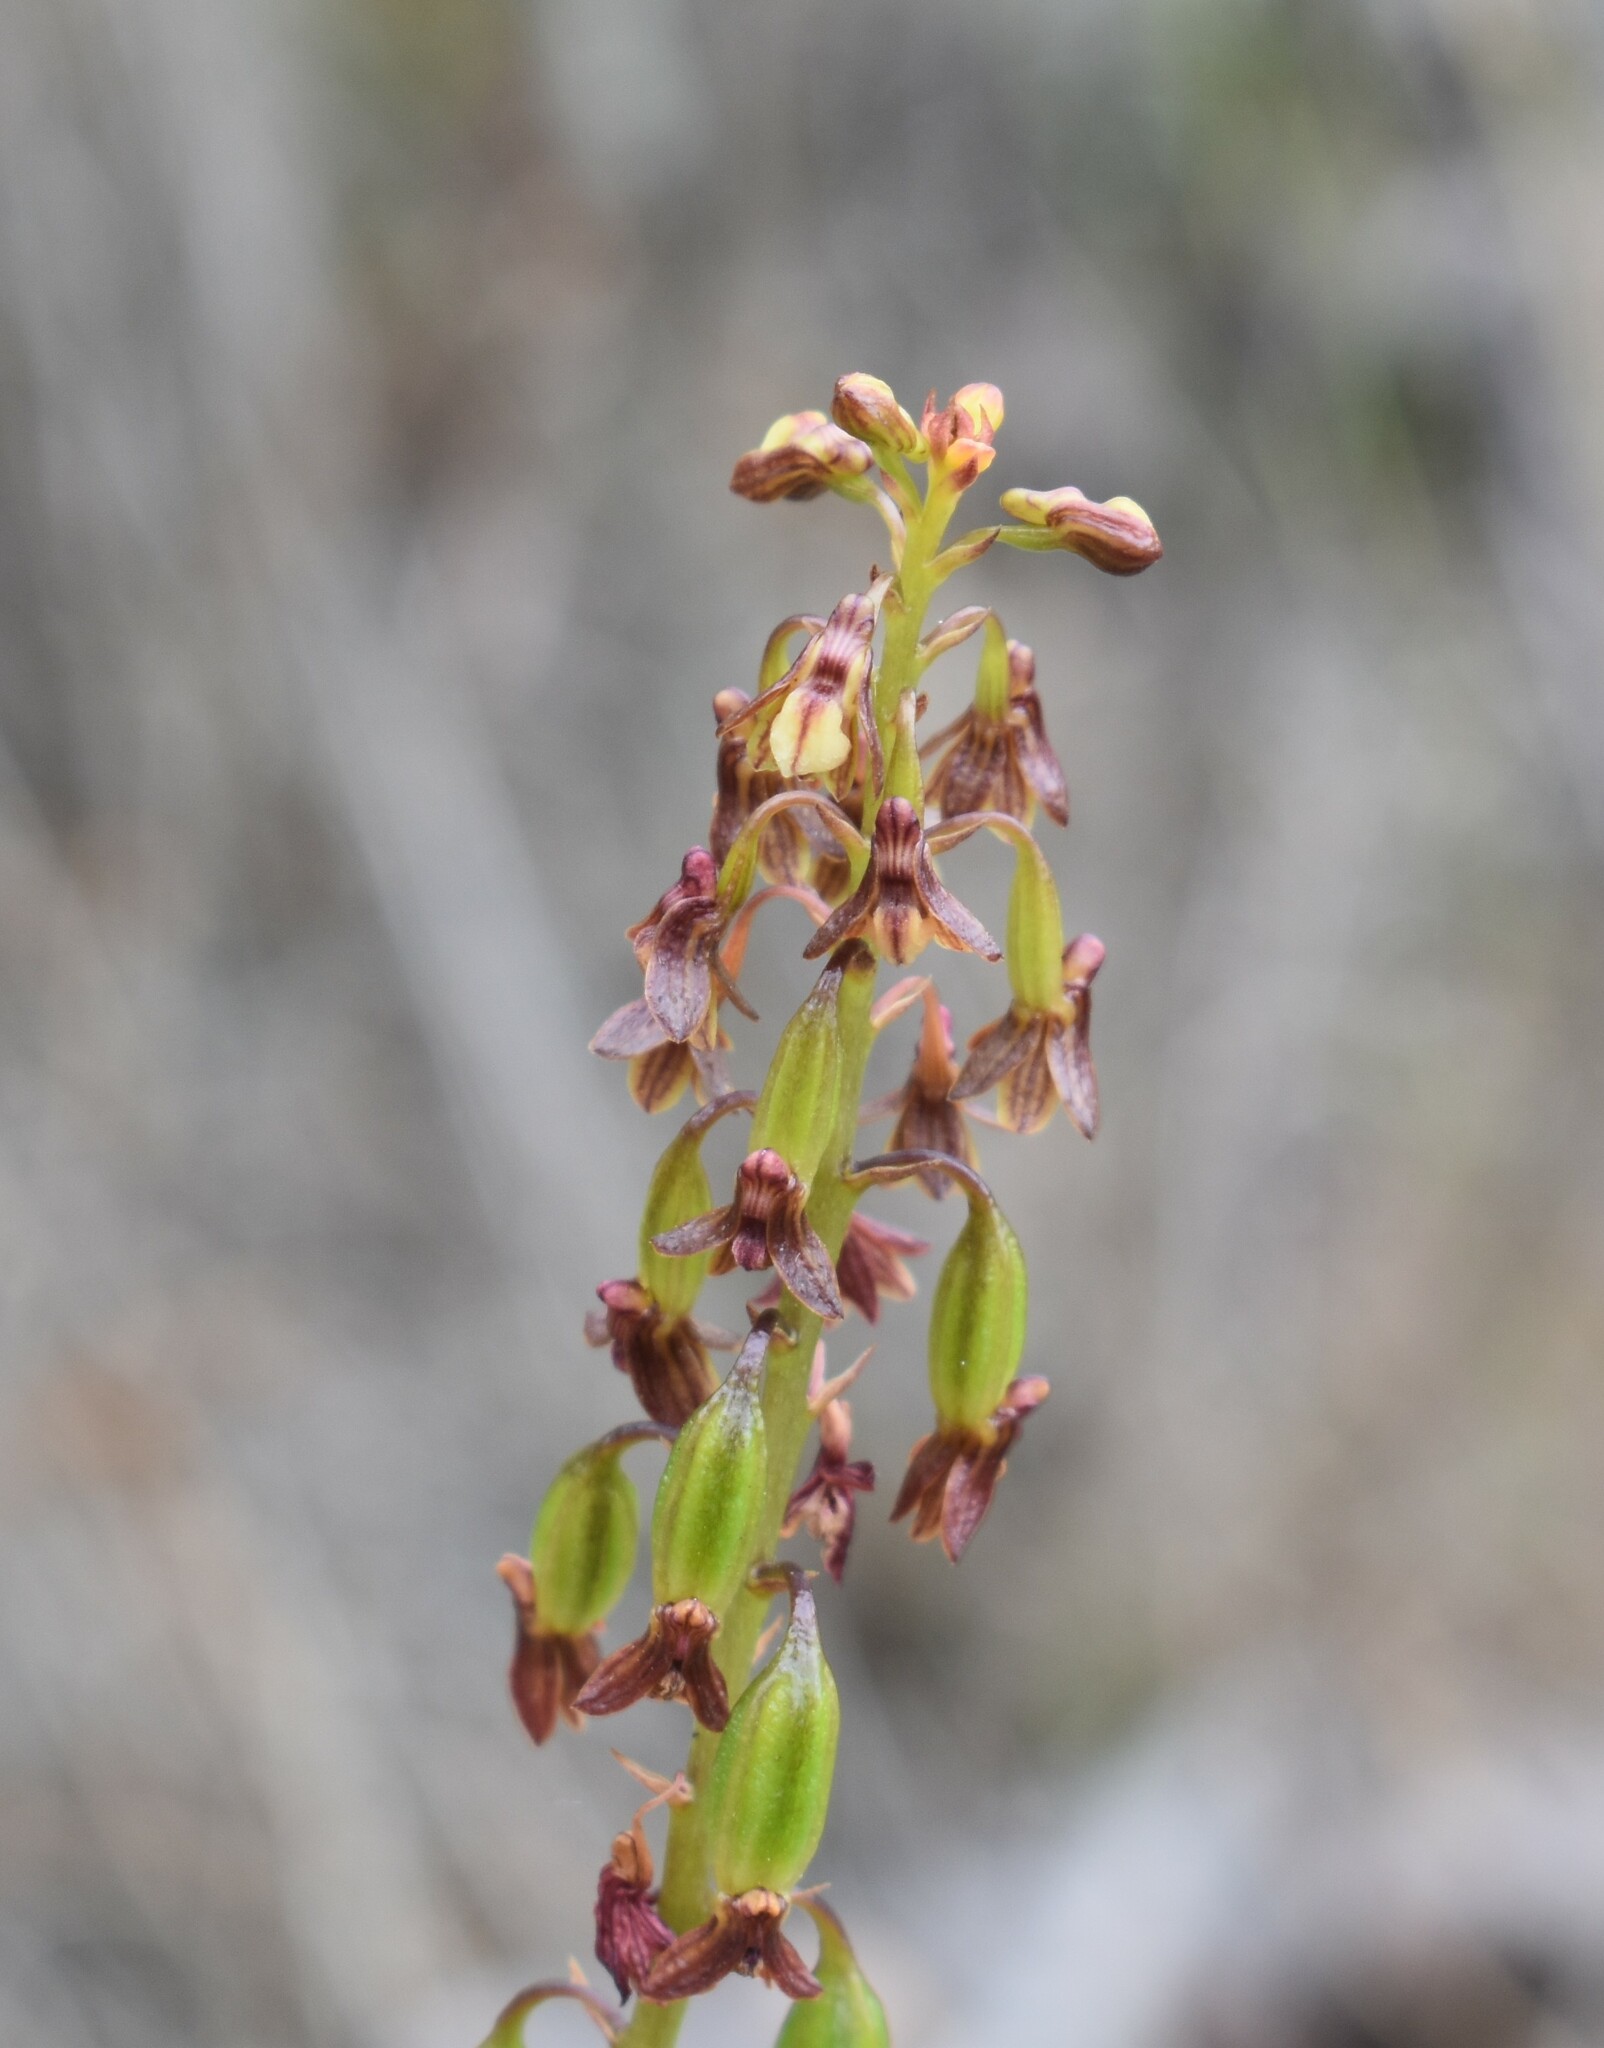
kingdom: Plantae
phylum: Tracheophyta
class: Liliopsida
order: Asparagales
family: Orchidaceae
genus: Eulophia
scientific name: Eulophia cochlearis
